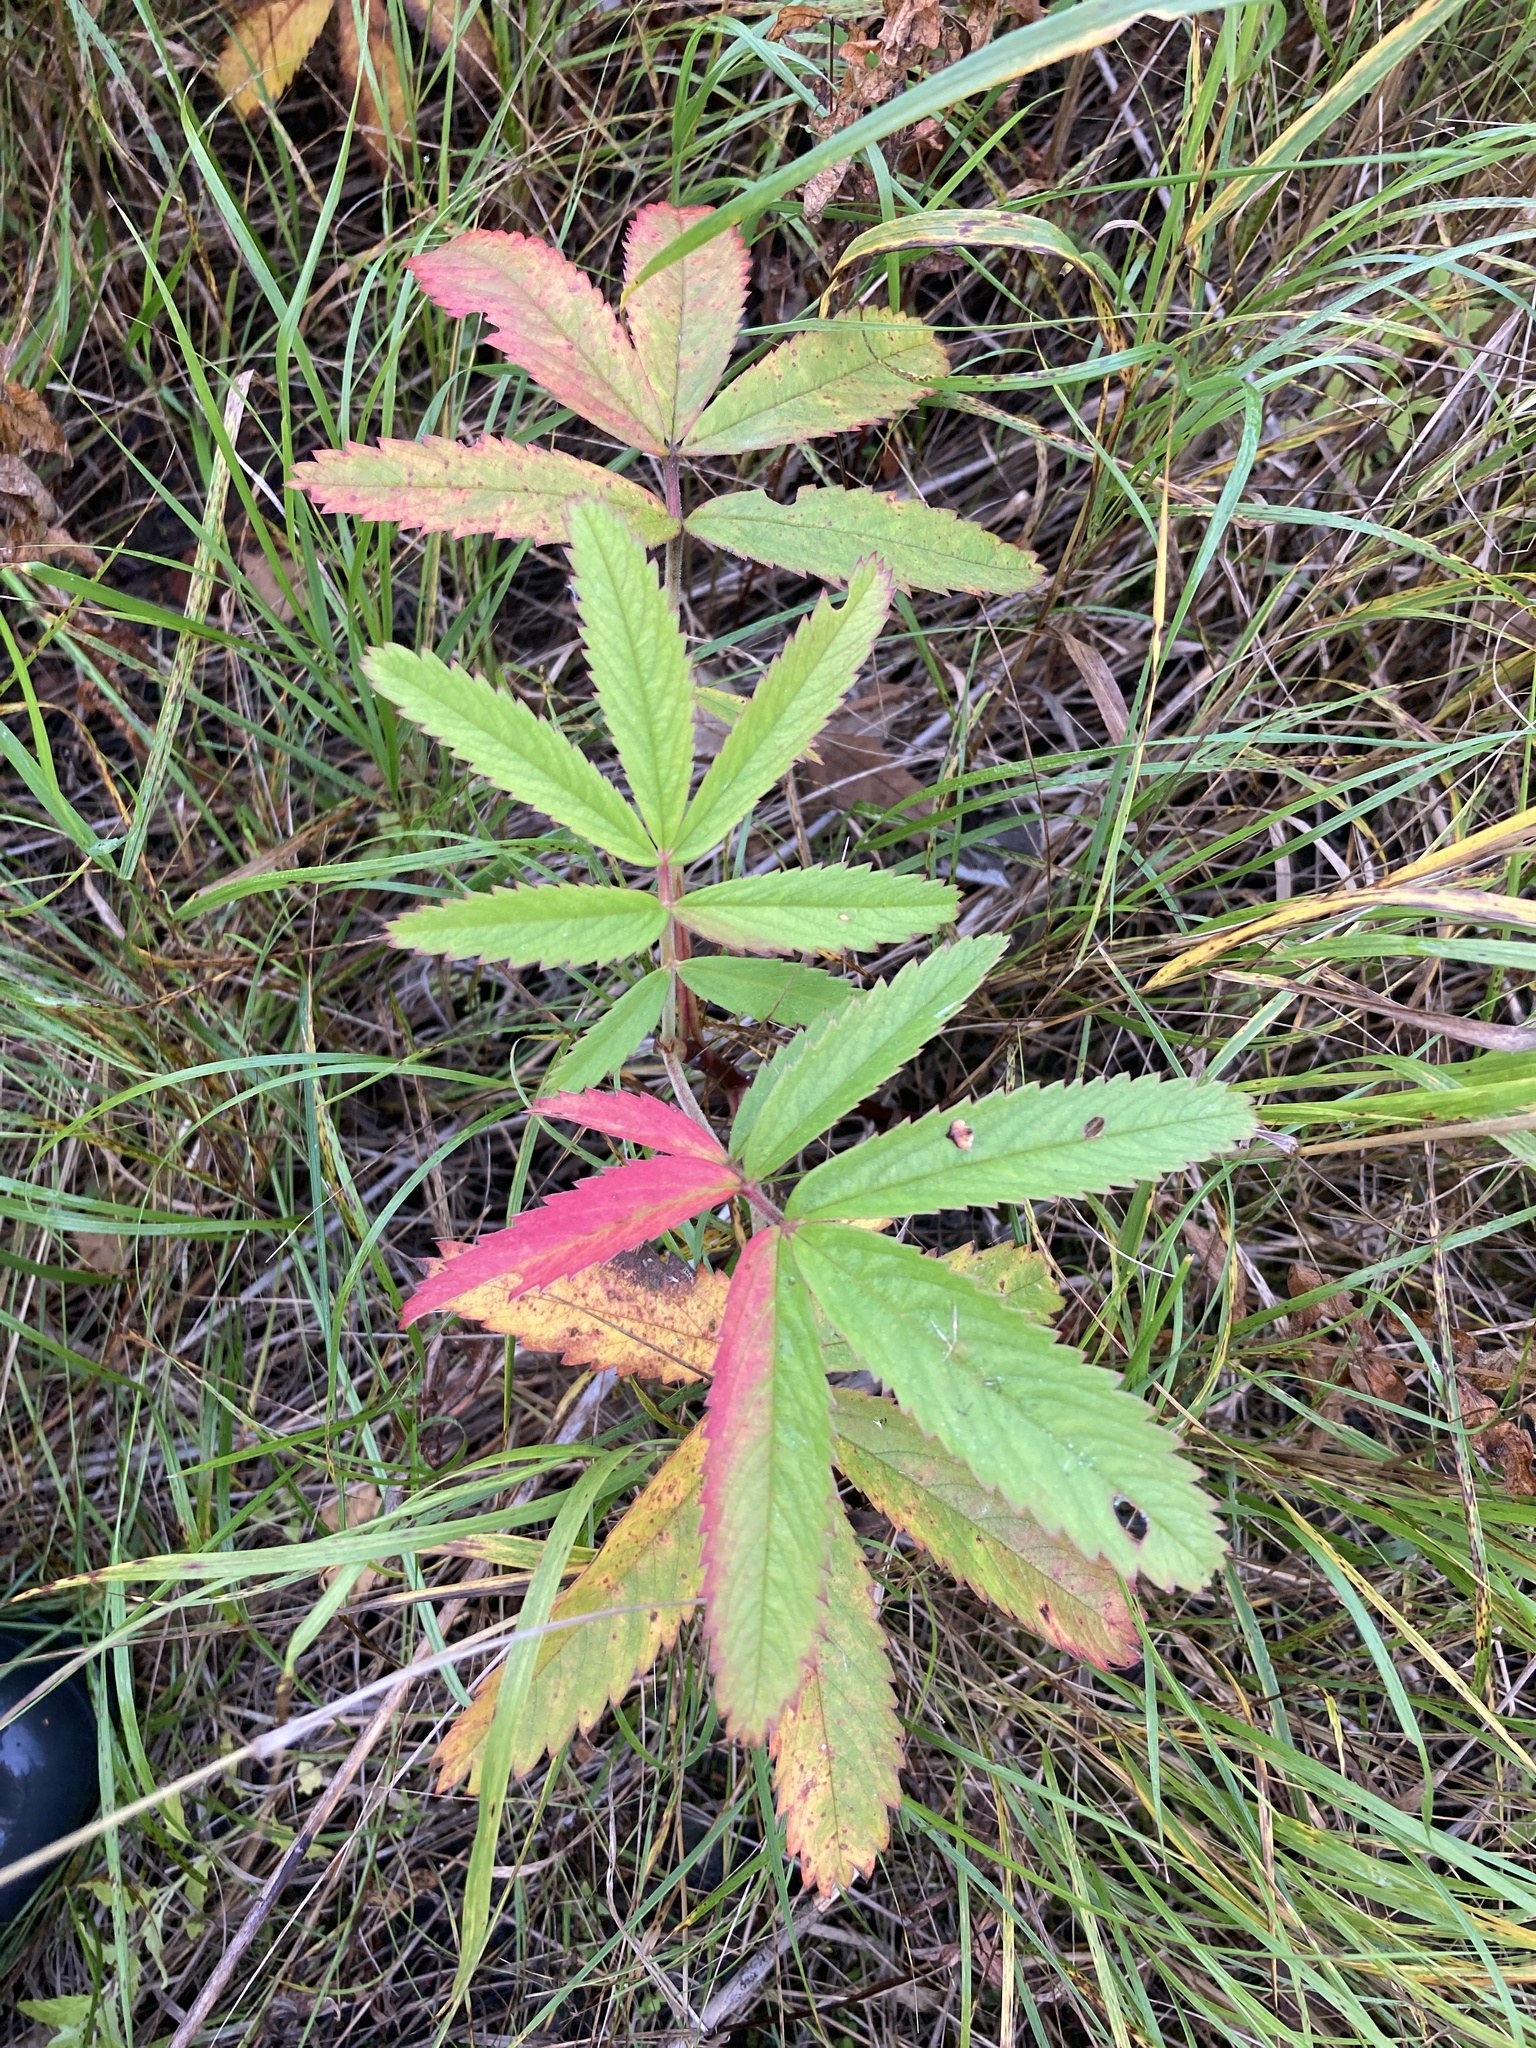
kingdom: Plantae
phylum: Tracheophyta
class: Magnoliopsida
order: Rosales
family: Rosaceae
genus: Comarum
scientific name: Comarum palustre
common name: Marsh cinquefoil
